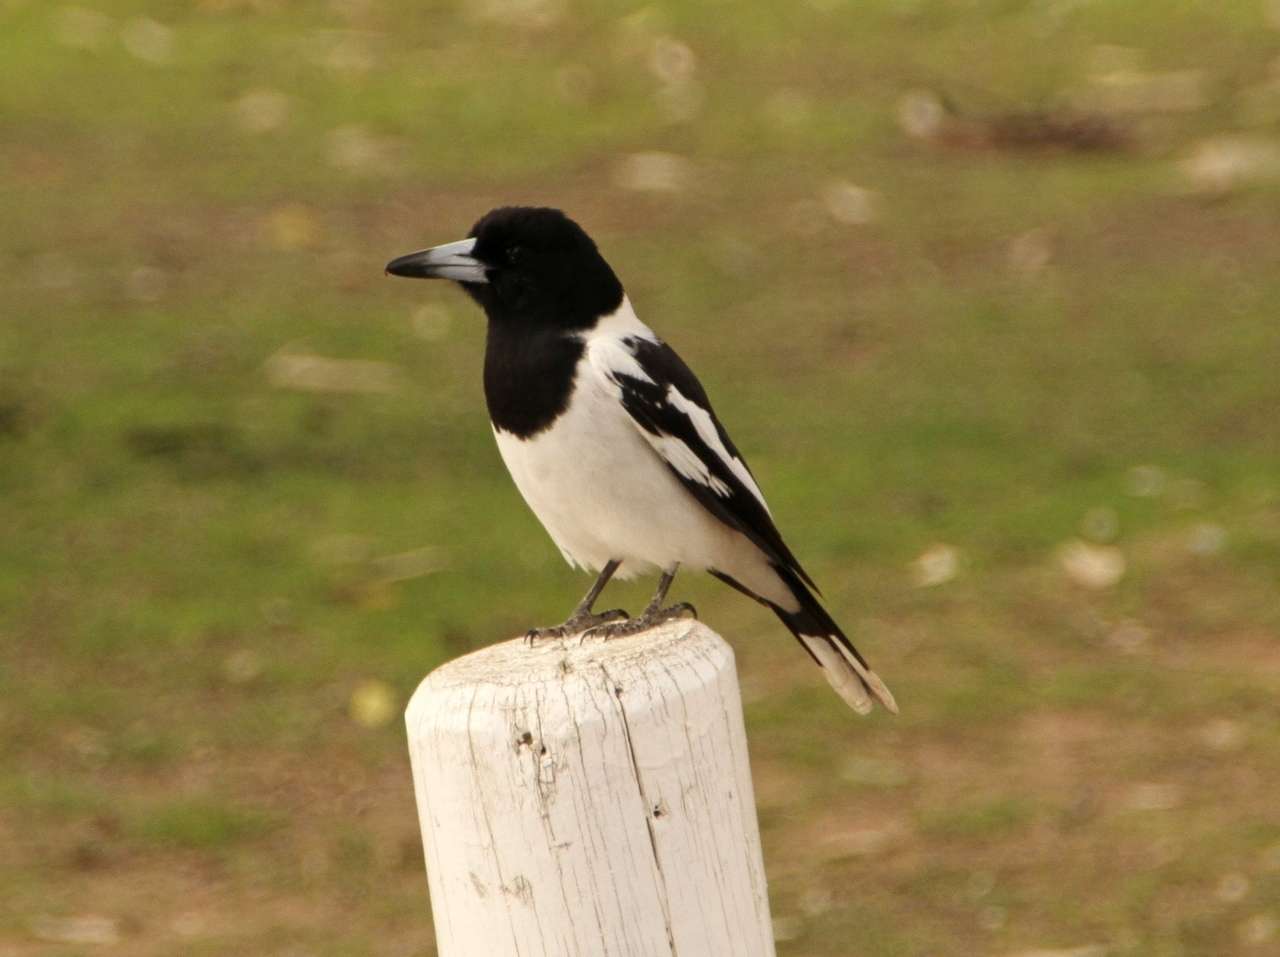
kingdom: Animalia
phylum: Chordata
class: Aves
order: Passeriformes
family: Cracticidae
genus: Cracticus
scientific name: Cracticus nigrogularis
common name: Pied butcherbird
